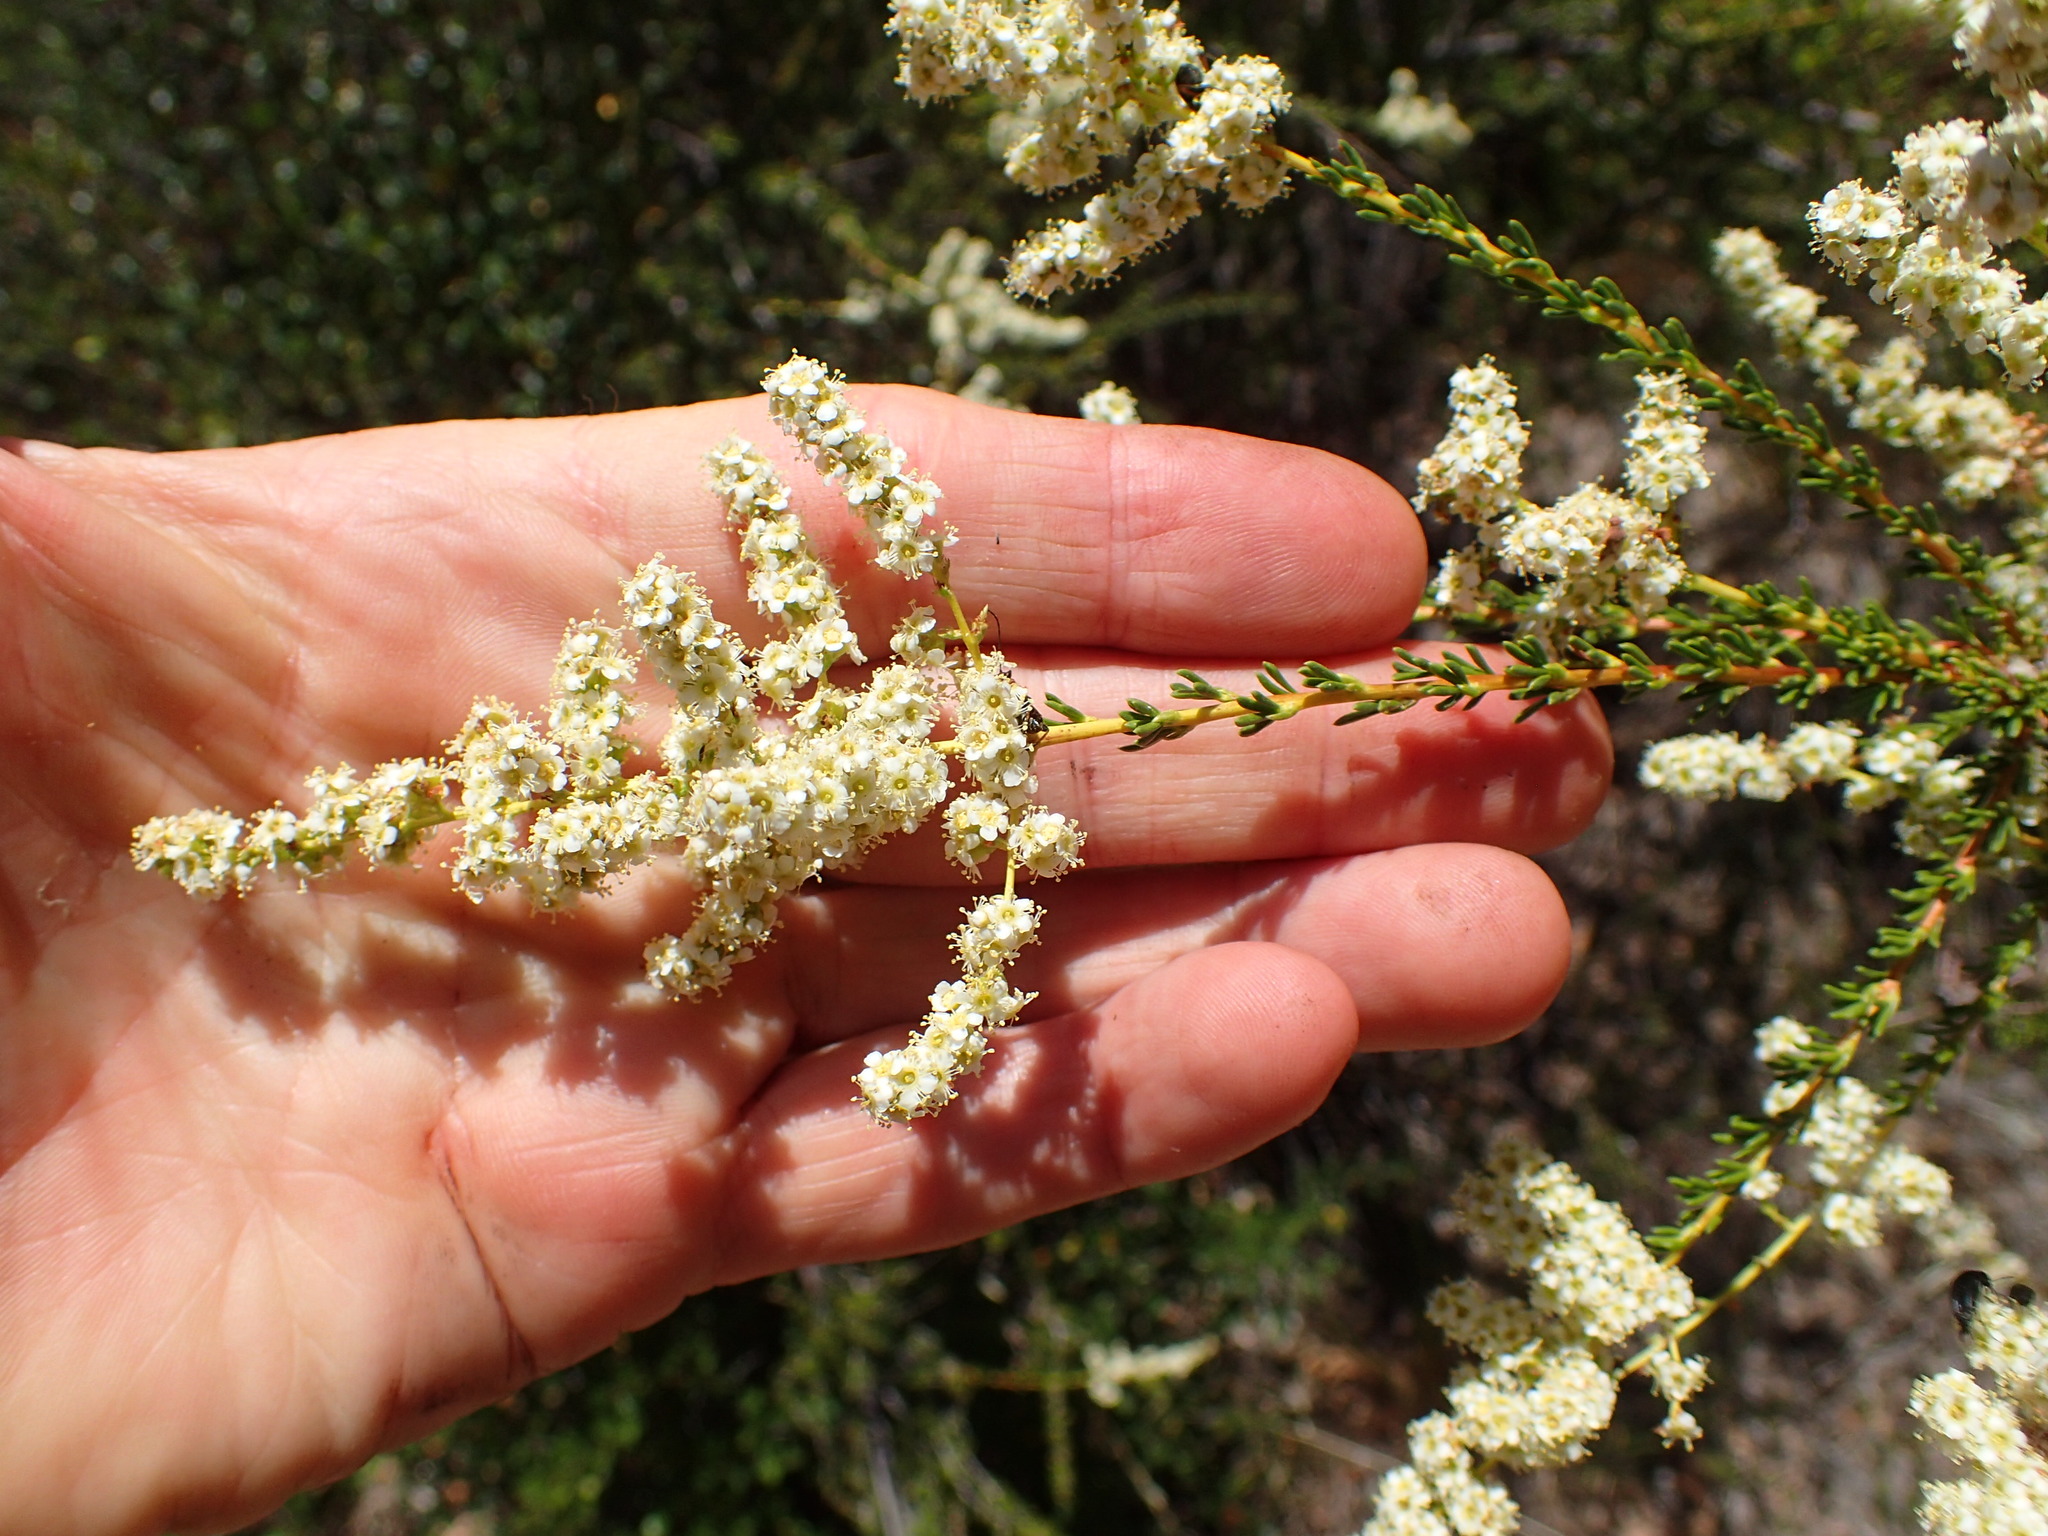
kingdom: Plantae
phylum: Tracheophyta
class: Magnoliopsida
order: Rosales
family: Rosaceae
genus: Adenostoma
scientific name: Adenostoma fasciculatum
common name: Chamise
